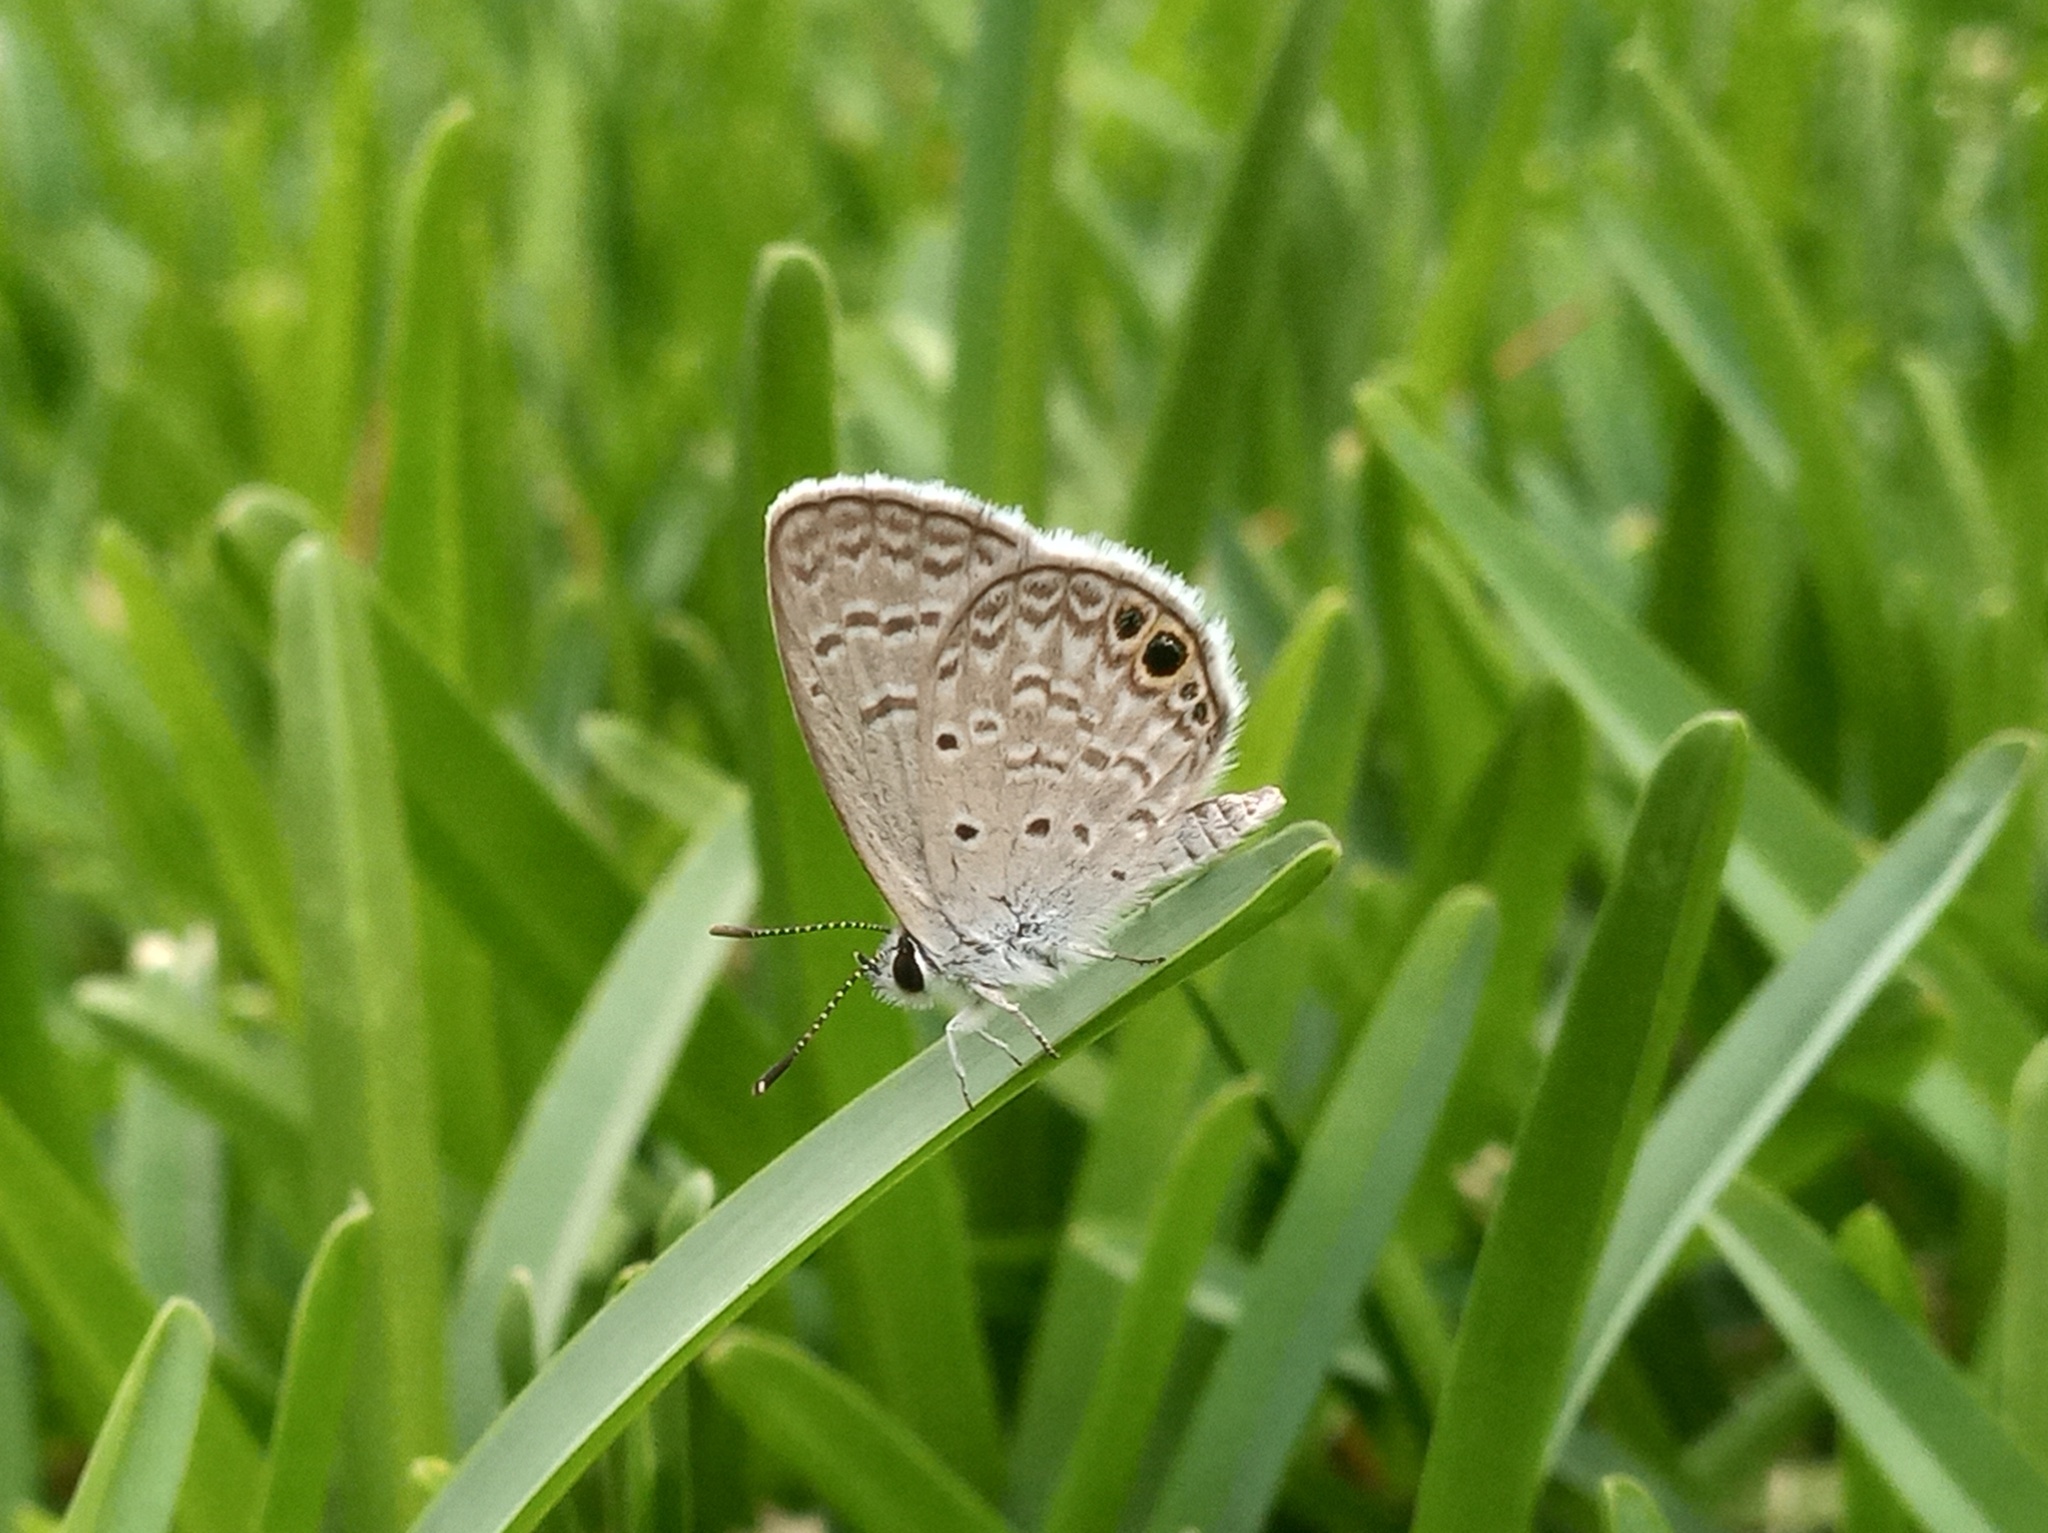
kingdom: Animalia
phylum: Arthropoda
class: Insecta
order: Lepidoptera
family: Lycaenidae
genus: Hemiargus
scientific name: Hemiargus ceraunus
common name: Ceraunus blue
